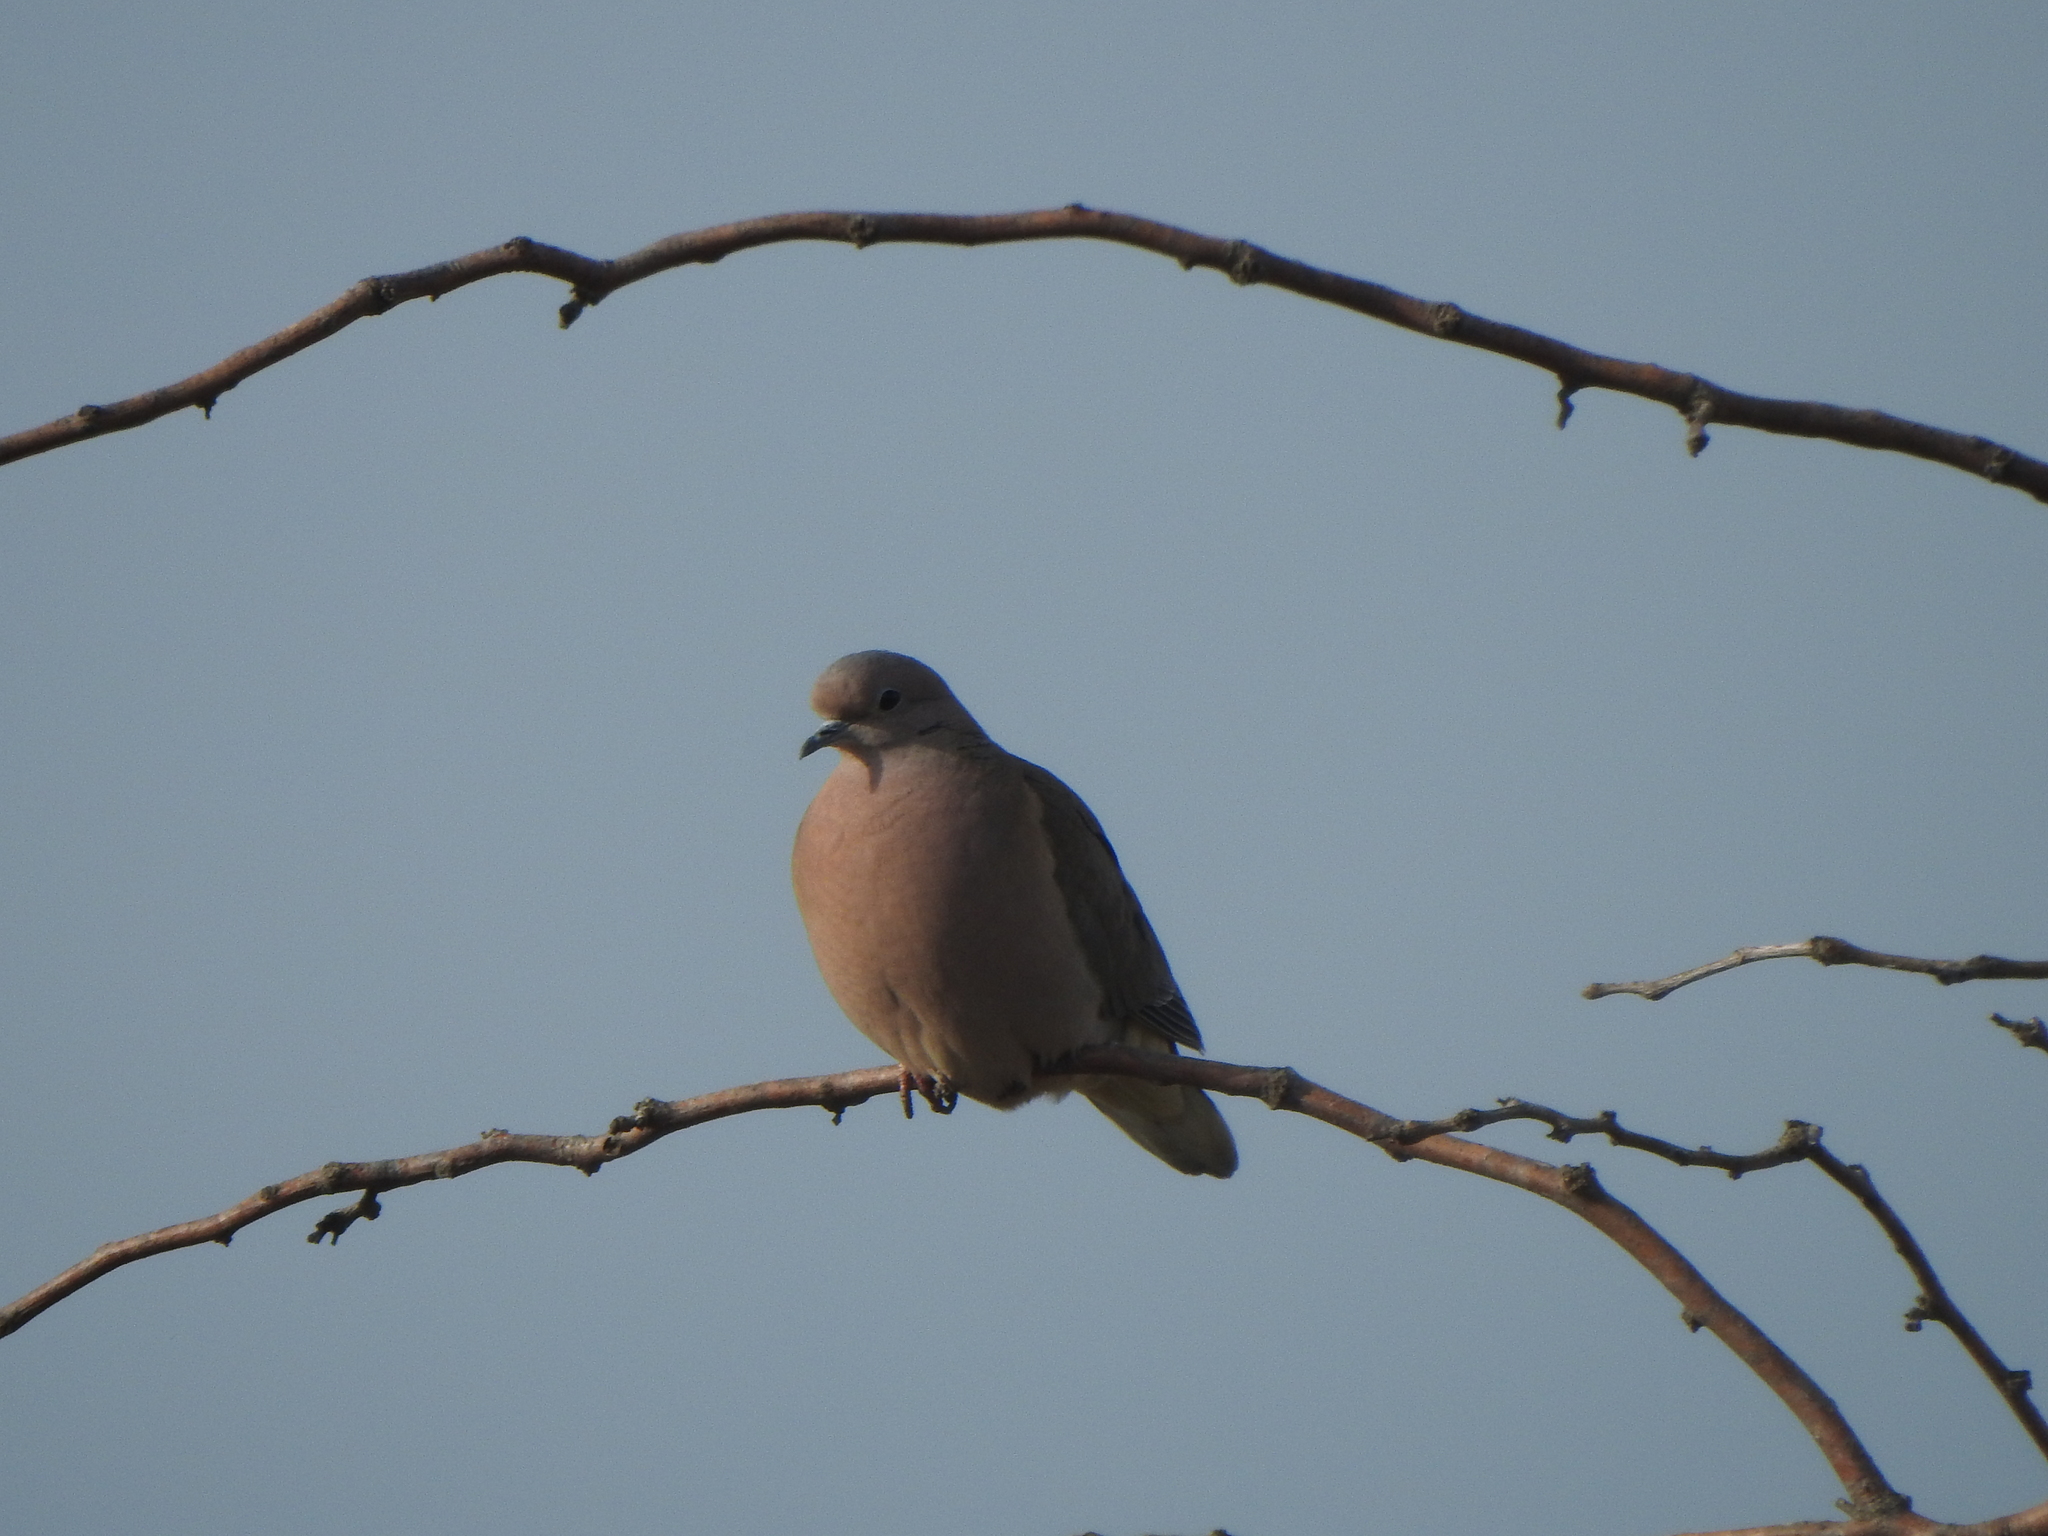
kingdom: Animalia
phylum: Chordata
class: Aves
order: Columbiformes
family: Columbidae
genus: Zenaida
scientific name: Zenaida auriculata
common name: Eared dove
